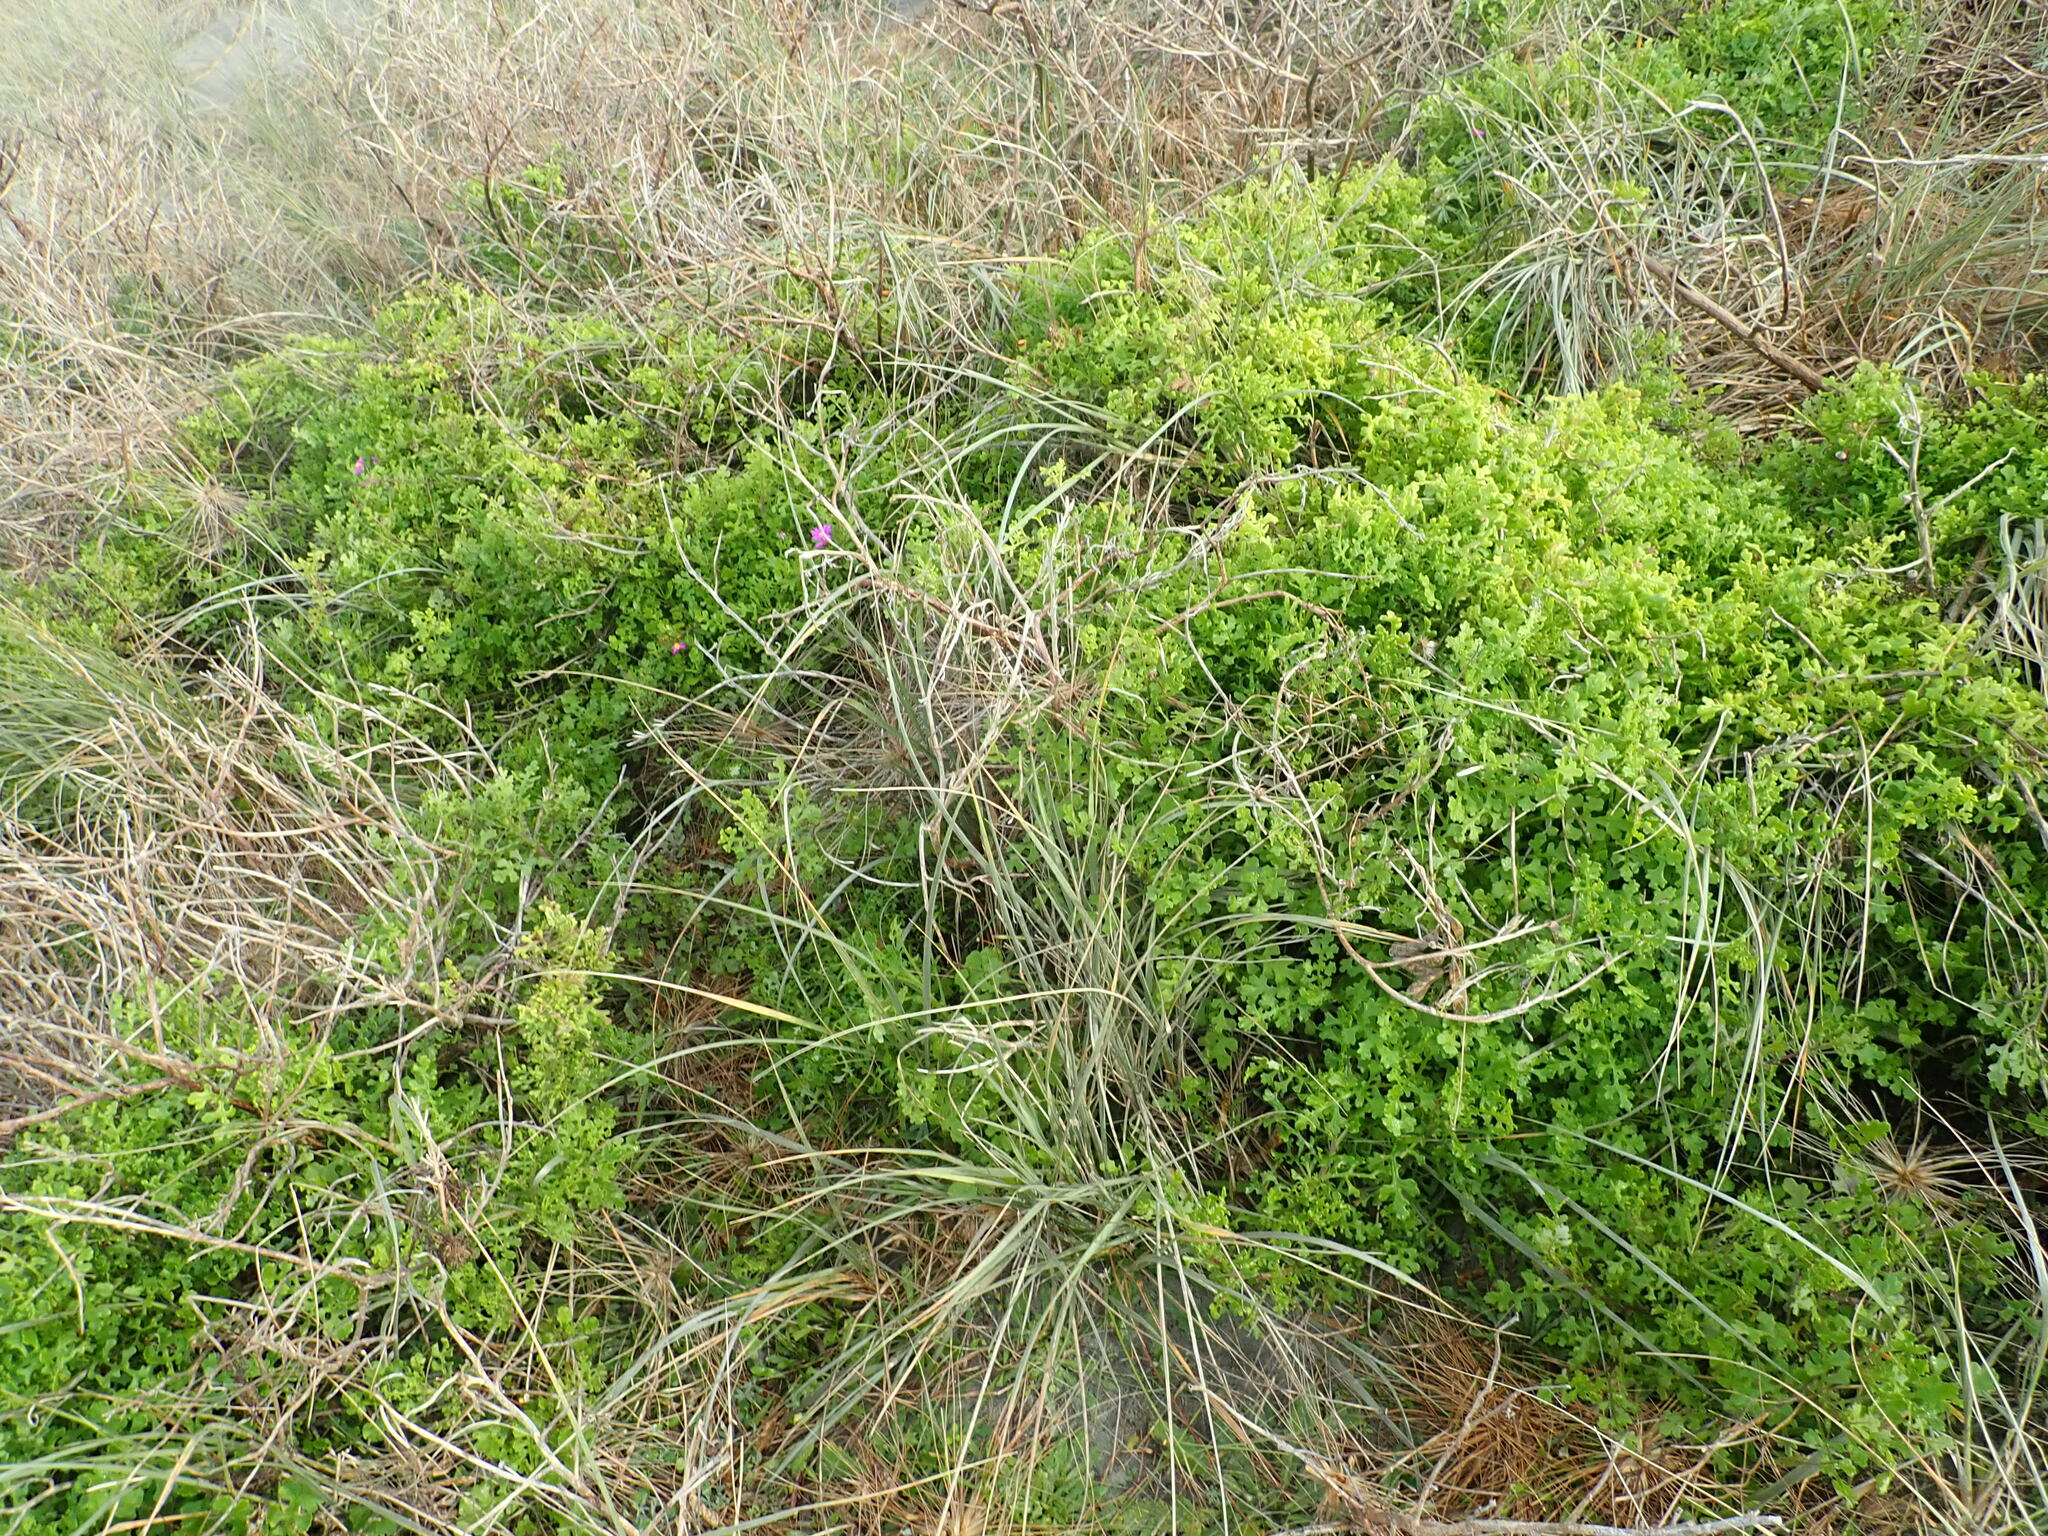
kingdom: Plantae
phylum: Tracheophyta
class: Magnoliopsida
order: Asterales
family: Asteraceae
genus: Senecio
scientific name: Senecio elegans
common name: Purple groundsel
